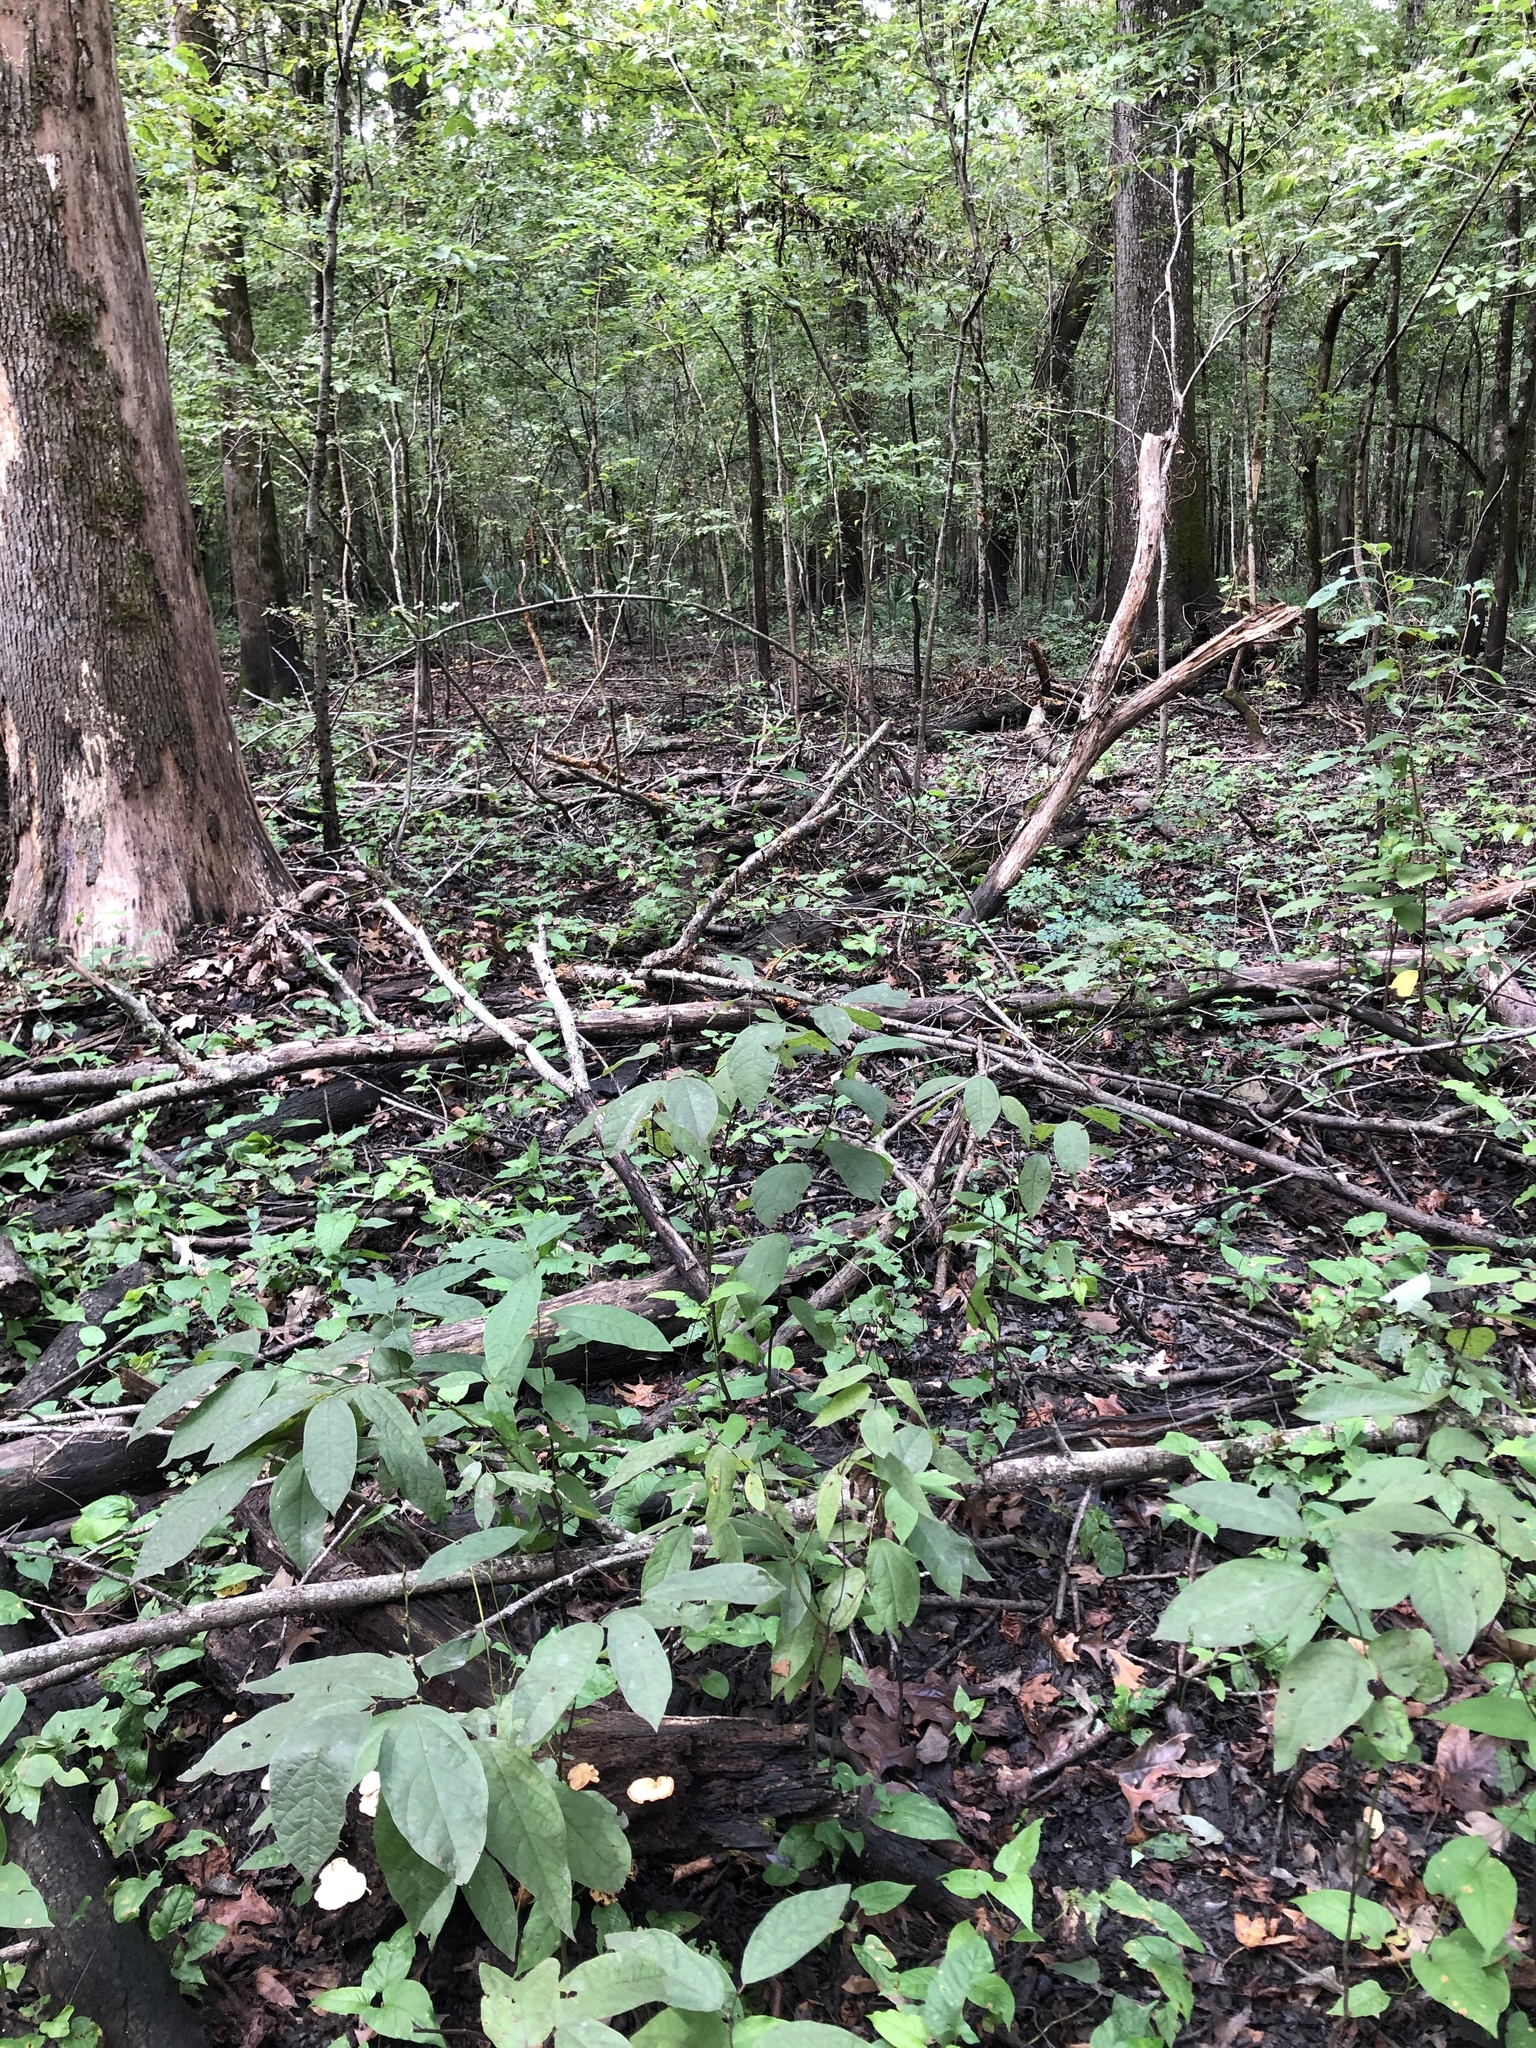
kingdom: Plantae
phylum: Tracheophyta
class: Magnoliopsida
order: Laurales
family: Lauraceae
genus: Lindera
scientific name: Lindera melissifolia
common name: Pondberry
